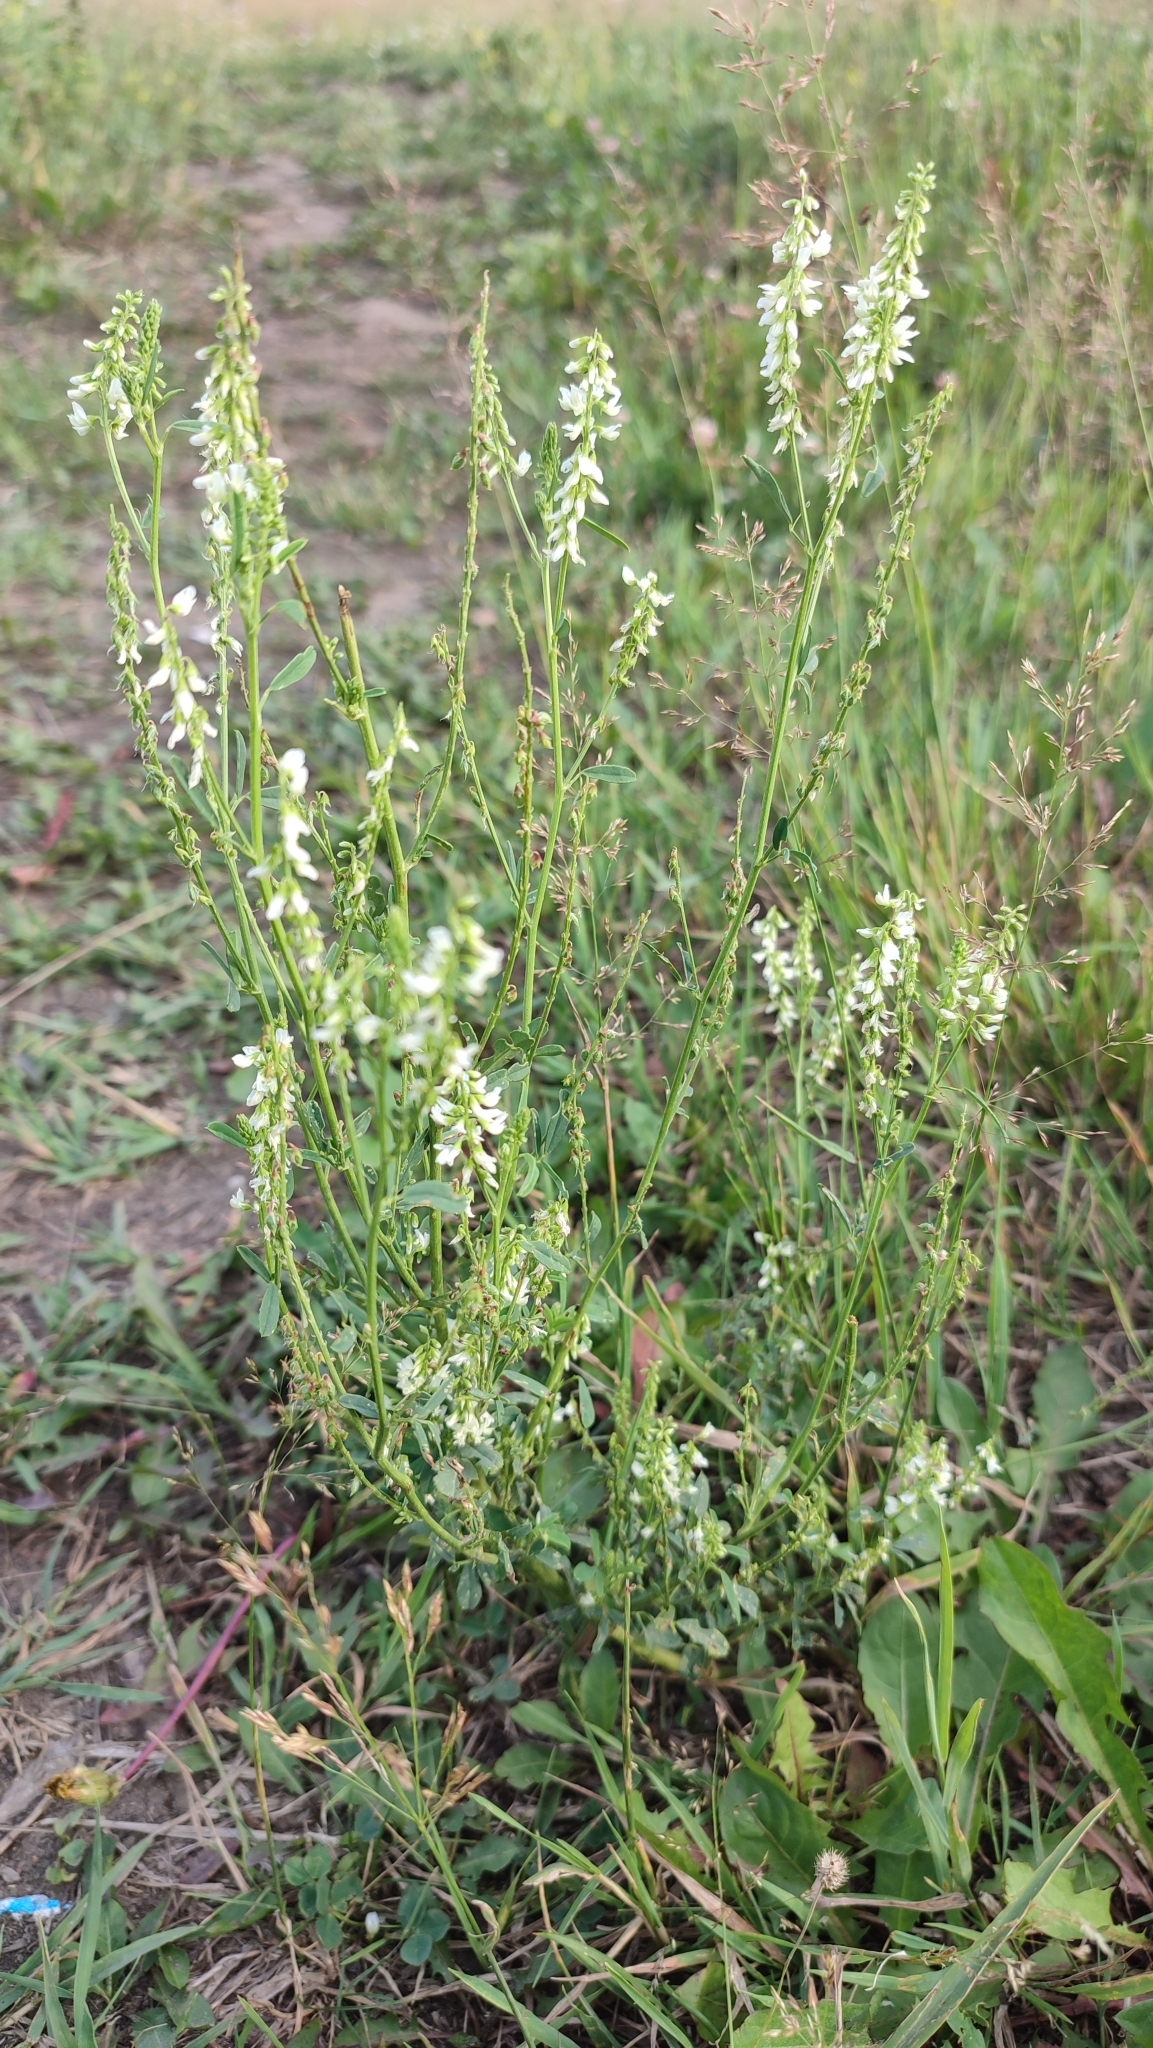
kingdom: Plantae
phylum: Tracheophyta
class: Magnoliopsida
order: Fabales
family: Fabaceae
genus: Melilotus
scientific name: Melilotus albus
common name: White melilot
